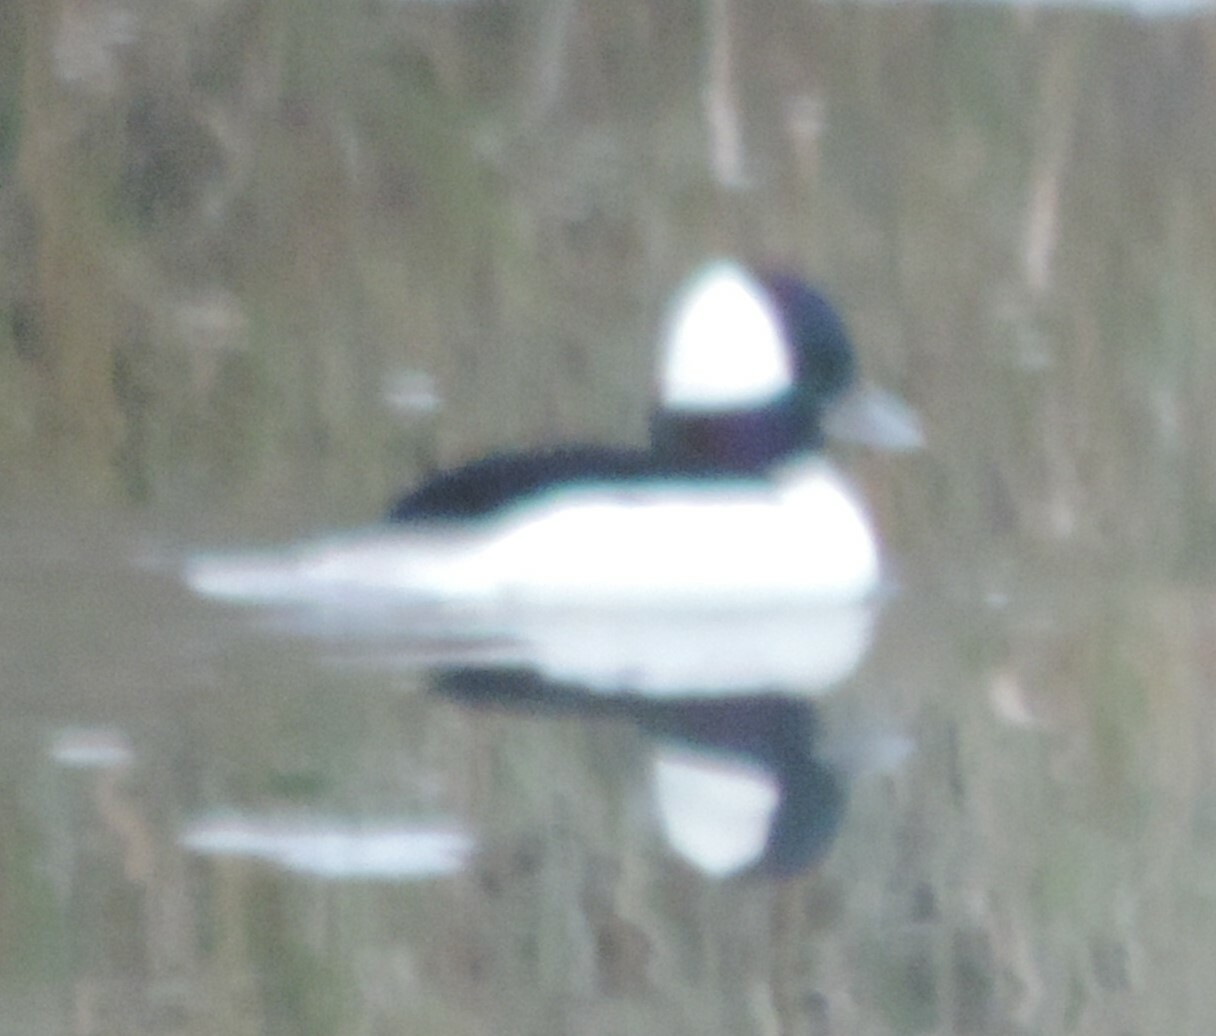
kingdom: Animalia
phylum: Chordata
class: Aves
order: Anseriformes
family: Anatidae
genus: Bucephala
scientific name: Bucephala albeola
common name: Bufflehead
